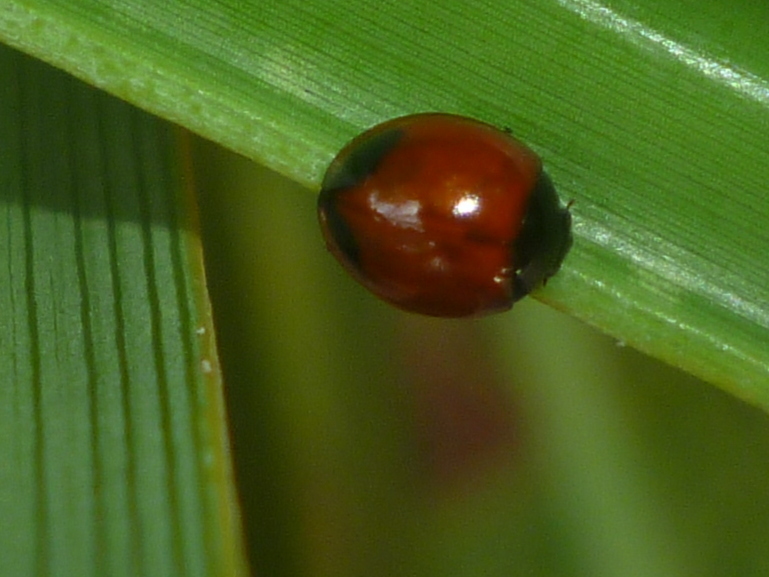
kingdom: Animalia
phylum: Arthropoda
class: Insecta
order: Coleoptera
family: Coccinellidae
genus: Exochomus
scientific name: Exochomus childreni
